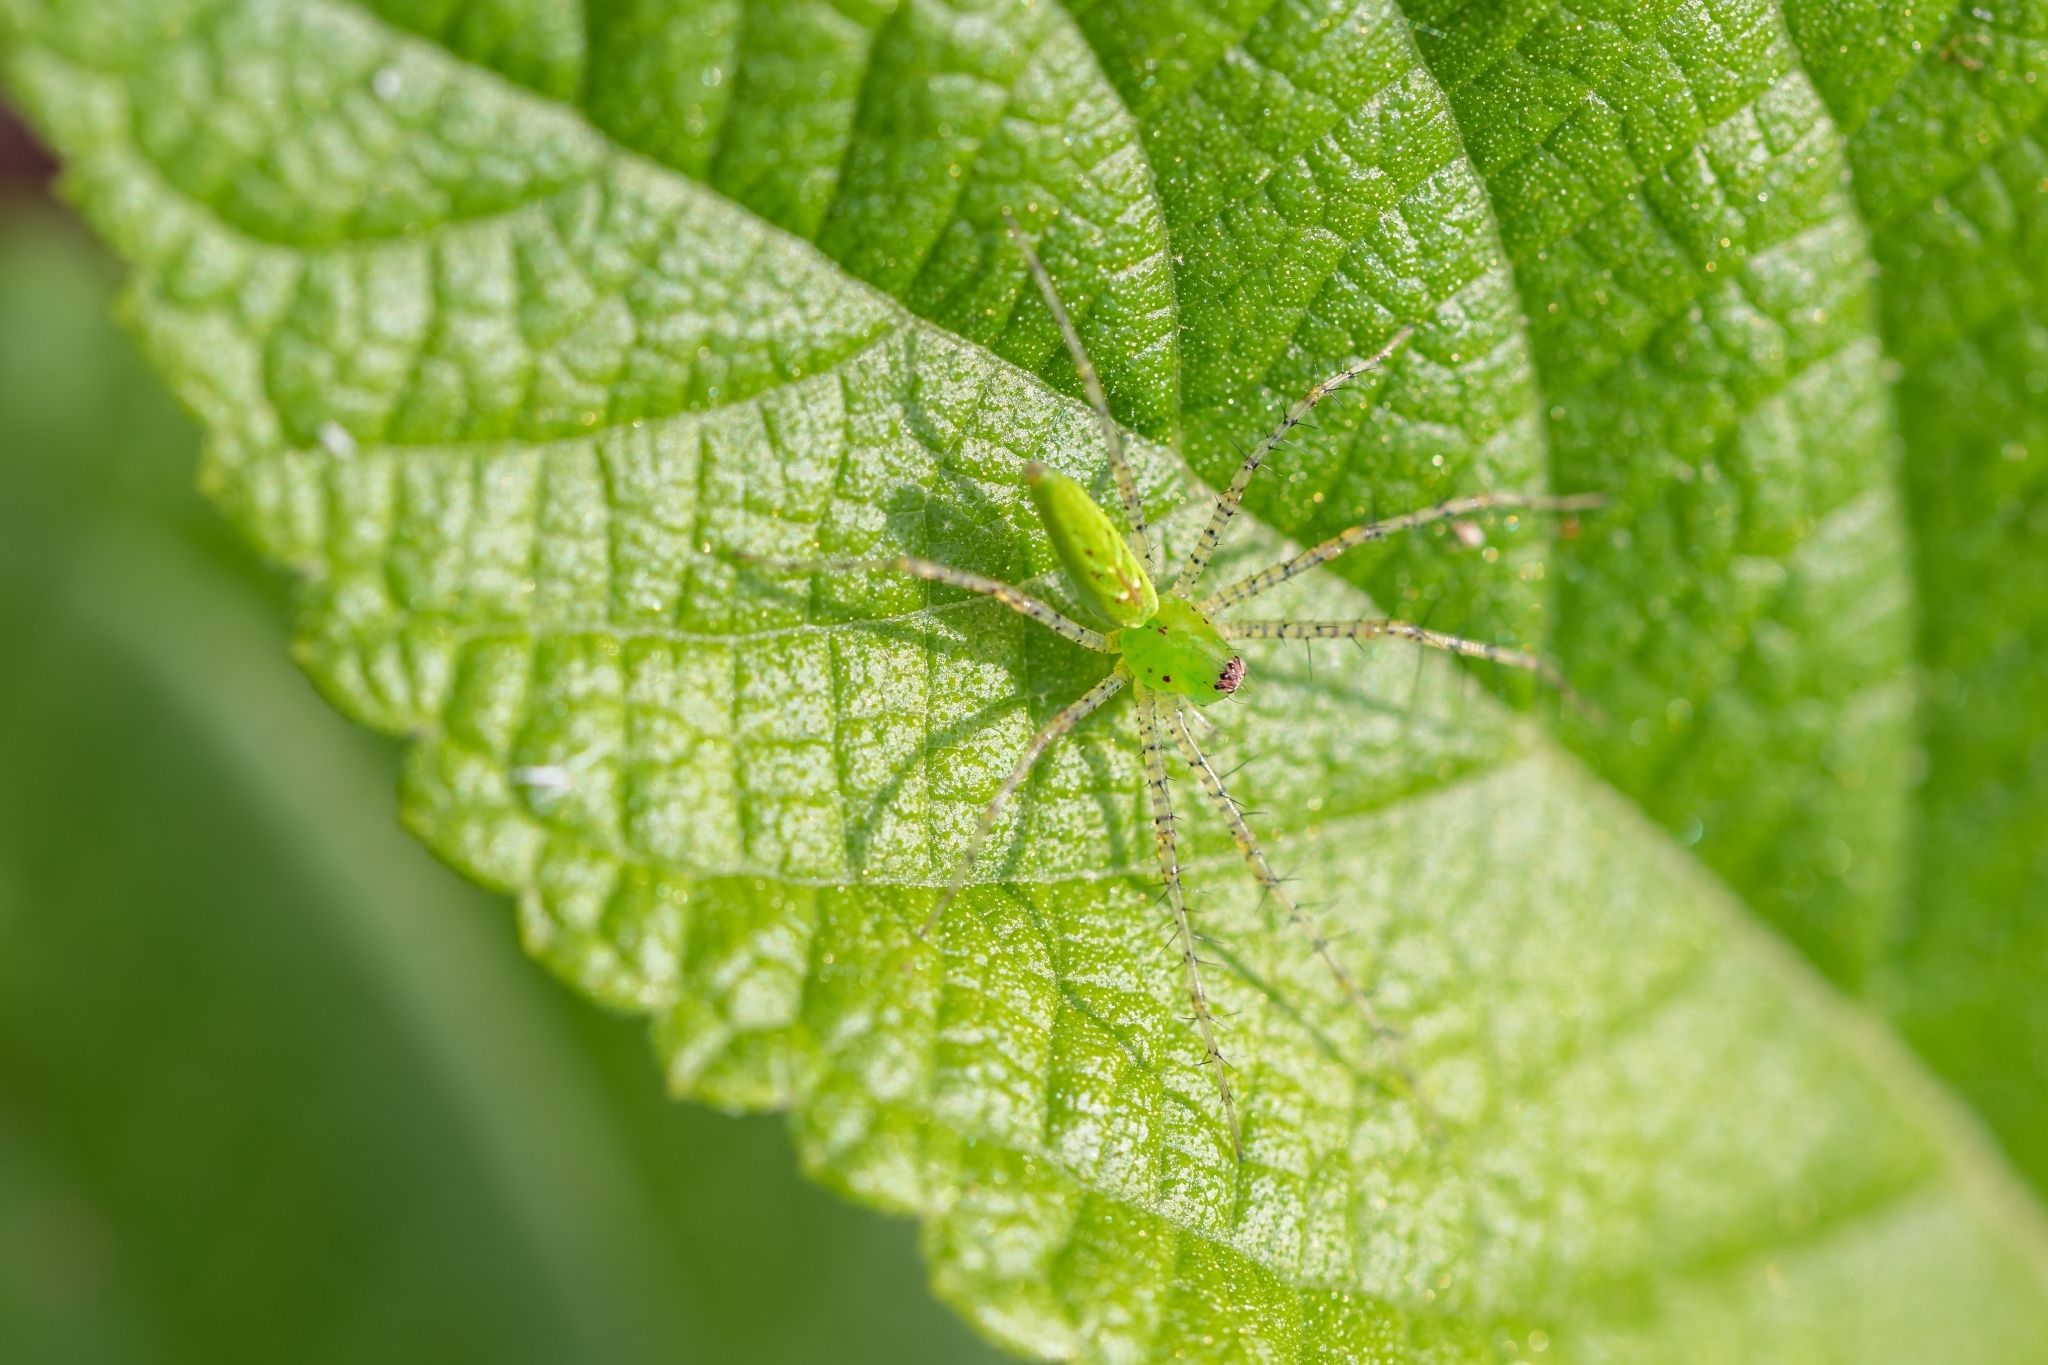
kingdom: Animalia
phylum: Arthropoda
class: Arachnida
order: Araneae
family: Oxyopidae
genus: Peucetia
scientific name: Peucetia viridans
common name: Lynx spiders
